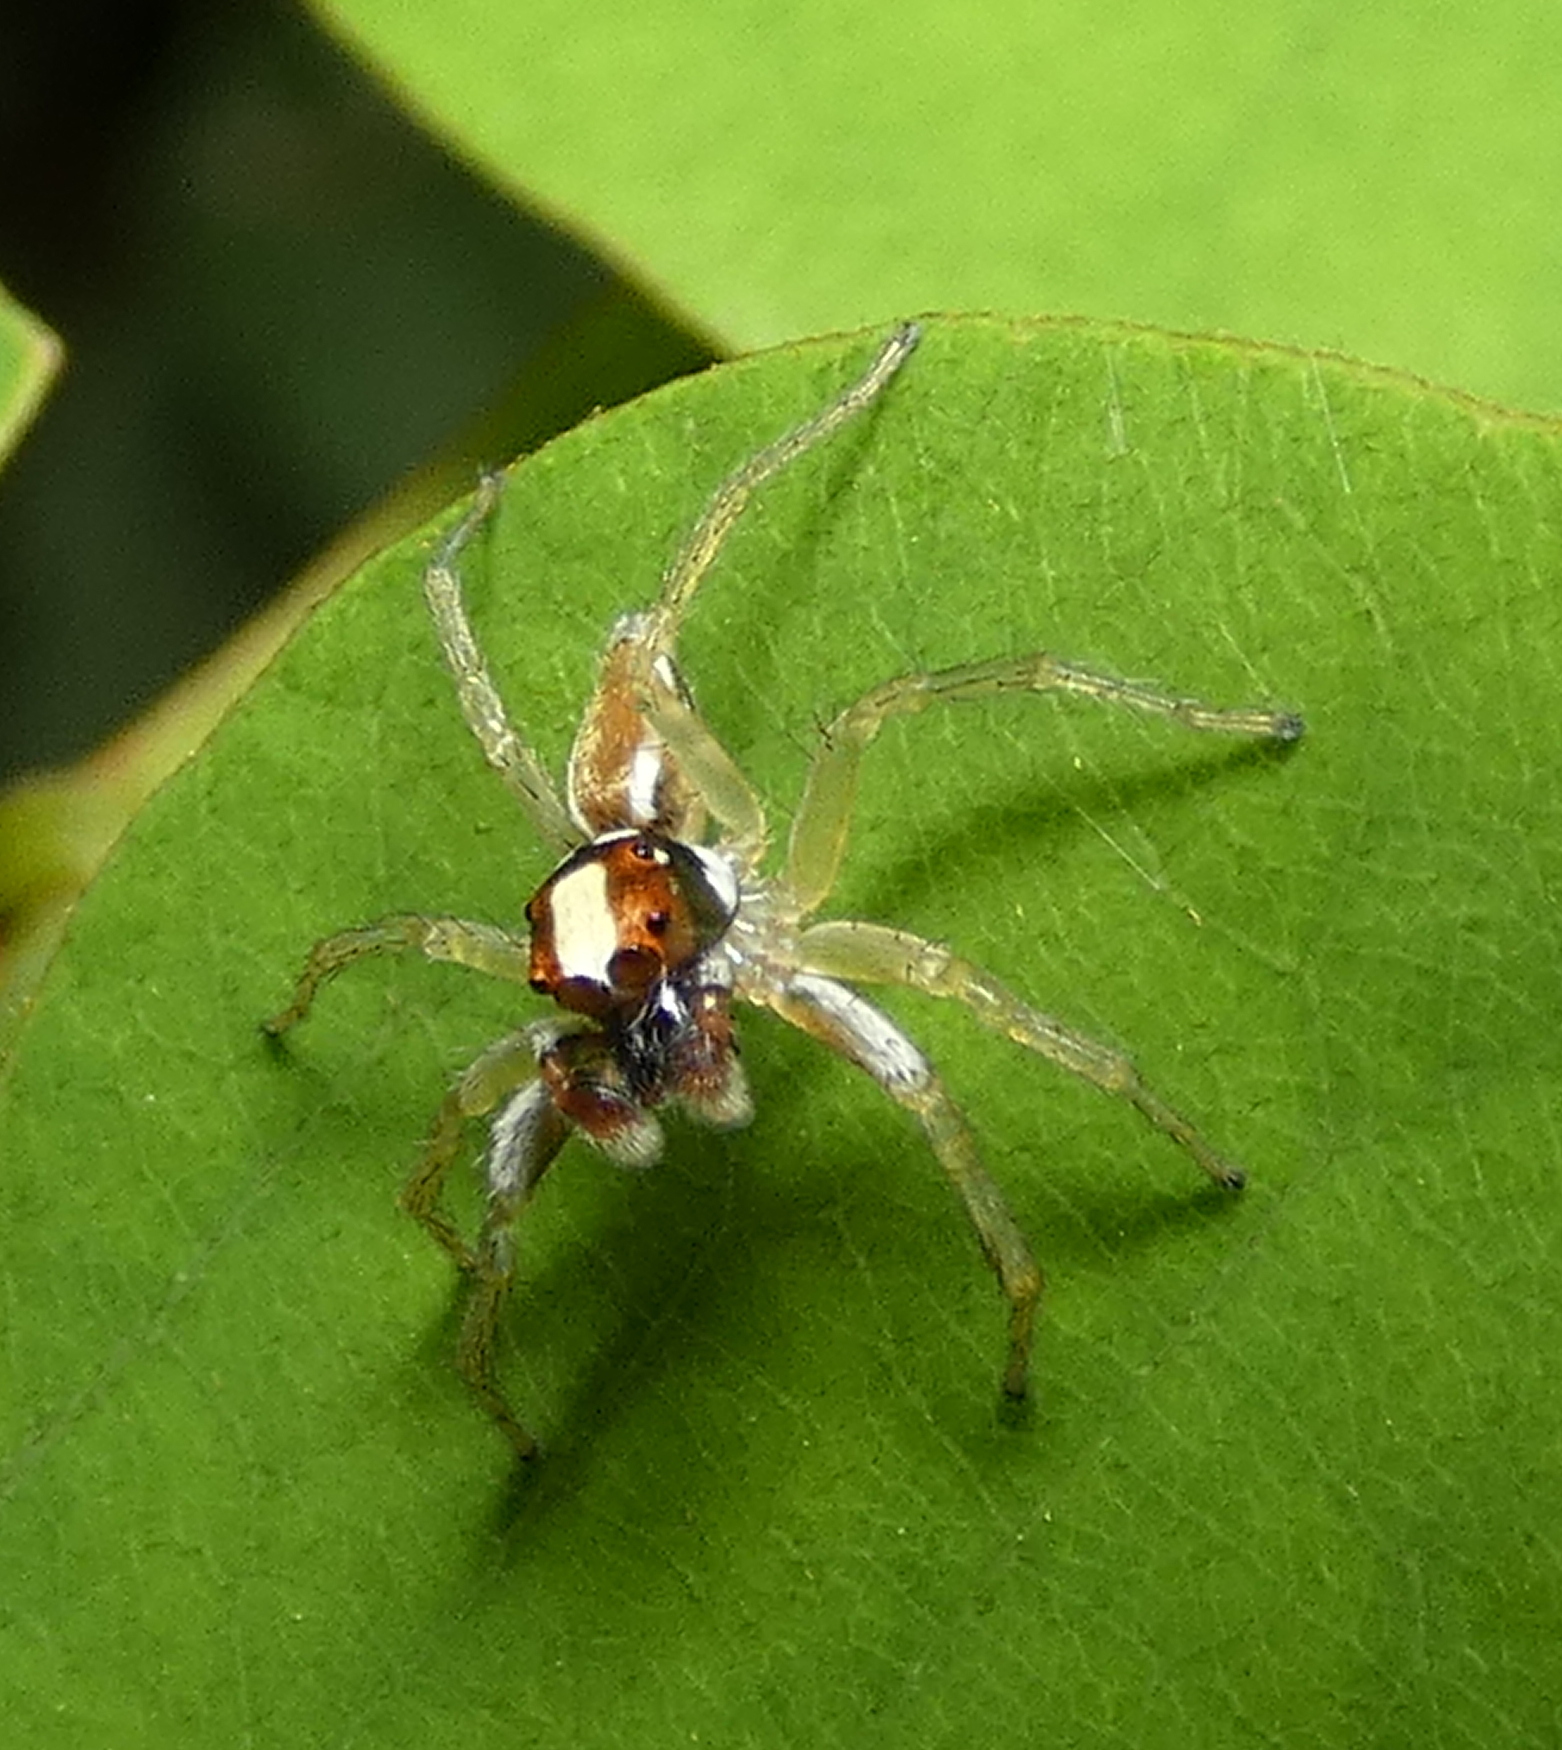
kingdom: Animalia
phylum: Arthropoda
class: Arachnida
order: Araneae
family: Salticidae
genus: Chira
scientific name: Chira spinosa
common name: Jumping spiders
